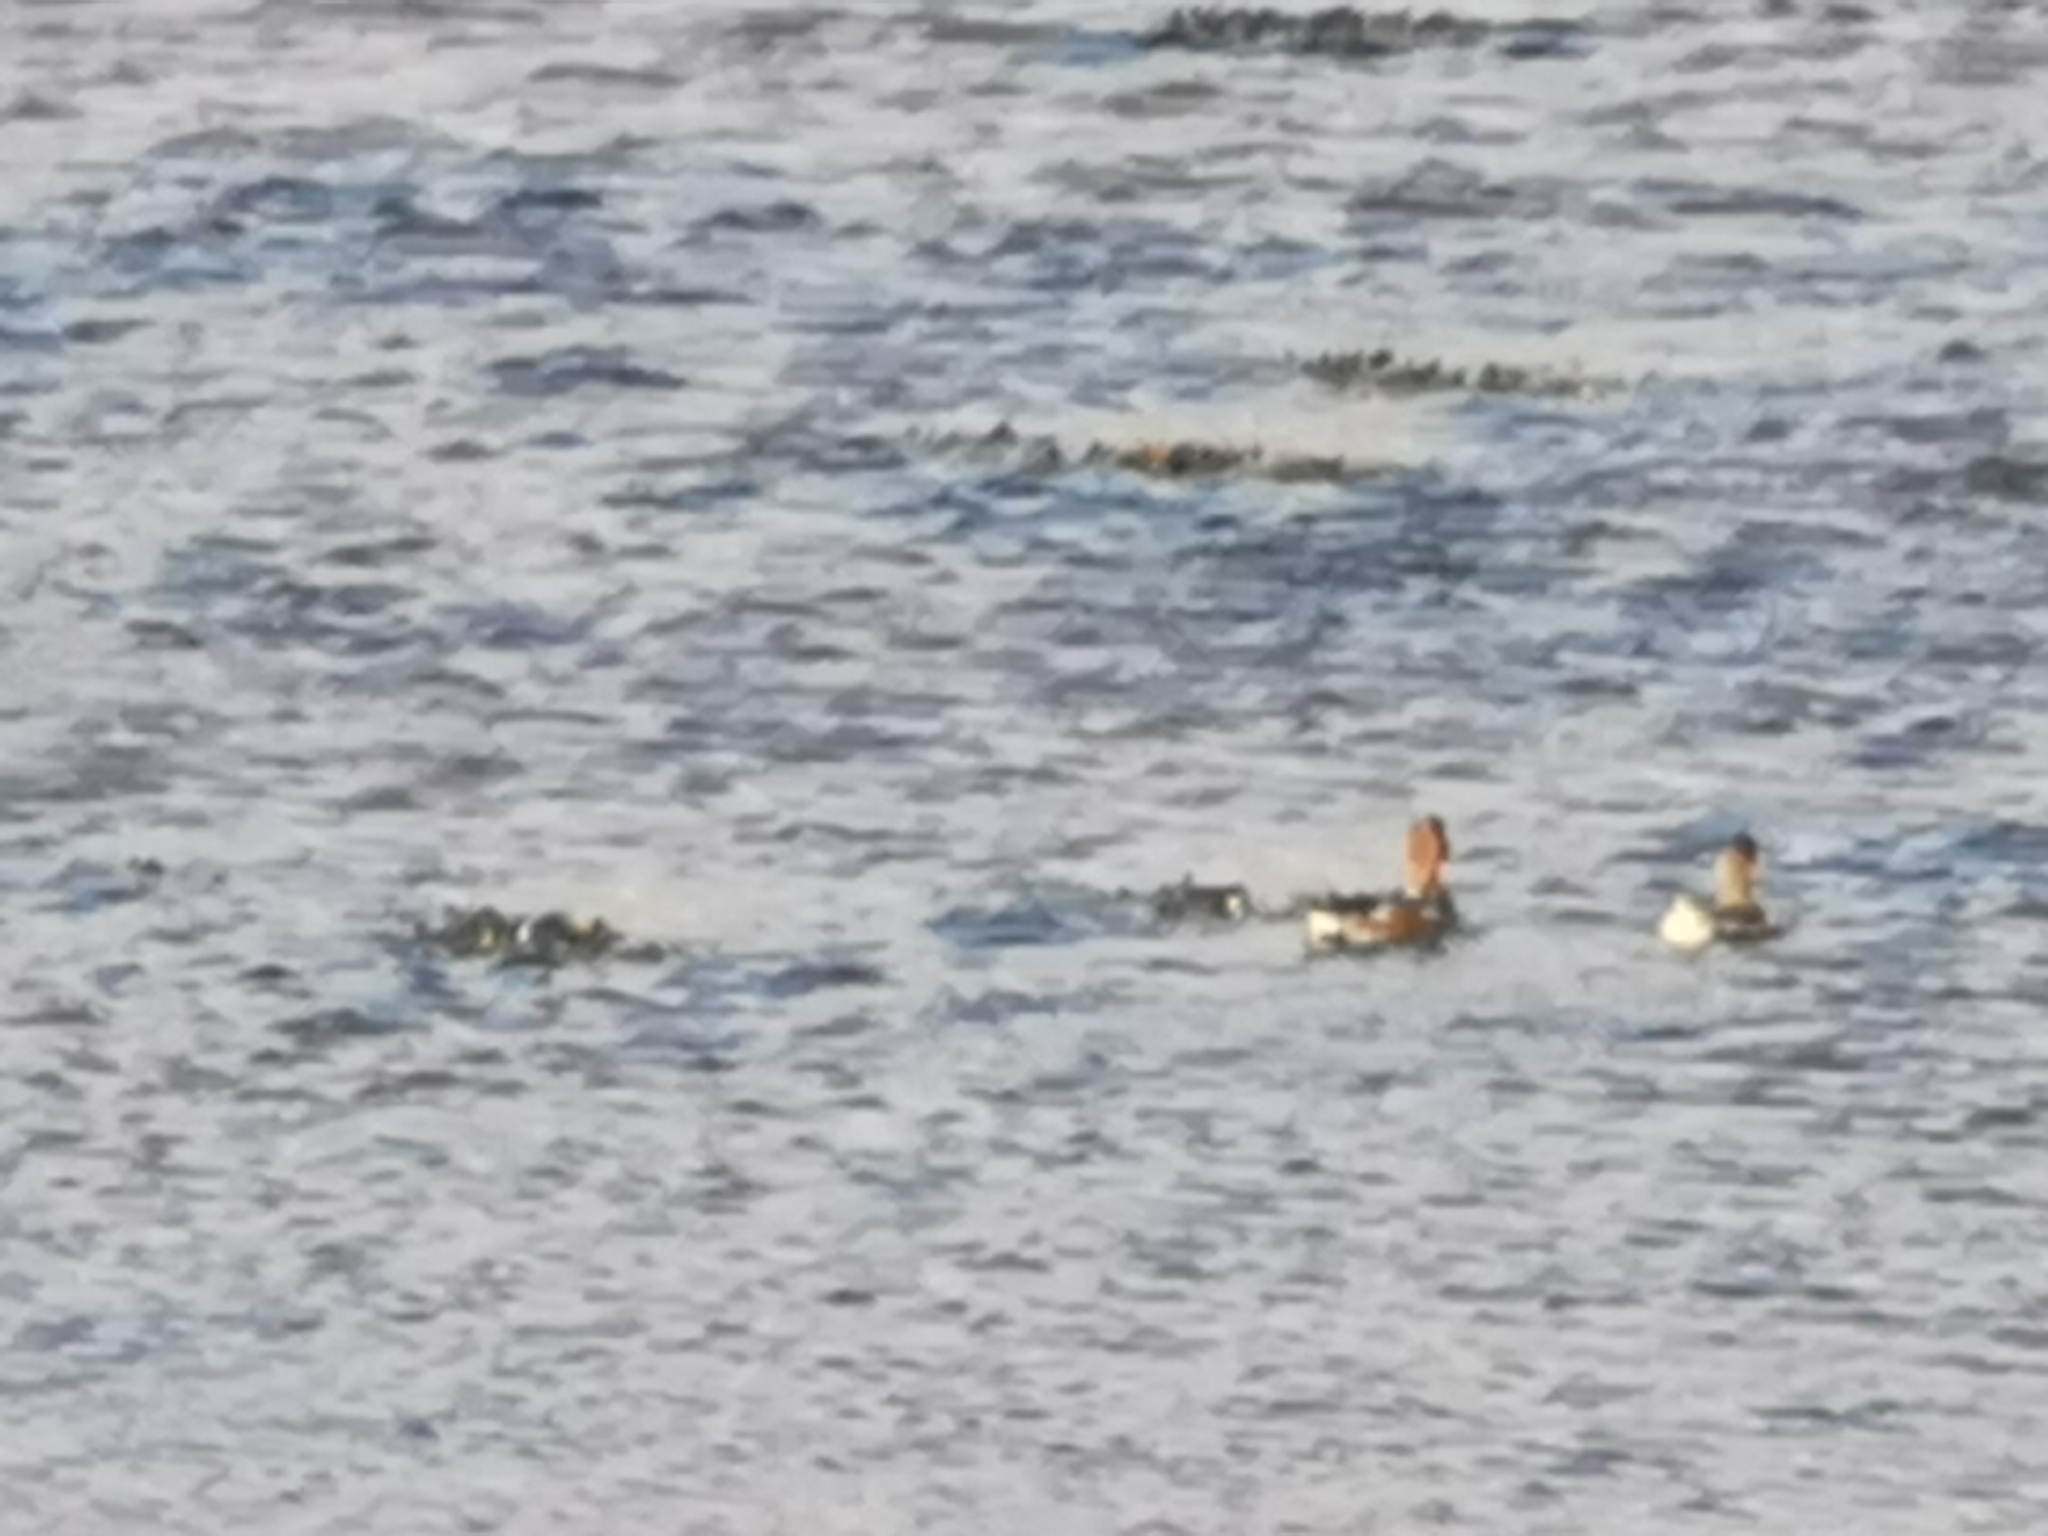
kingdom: Animalia
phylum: Chordata
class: Aves
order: Anseriformes
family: Anatidae
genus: Mareca
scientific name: Mareca penelope
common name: Eurasian wigeon
